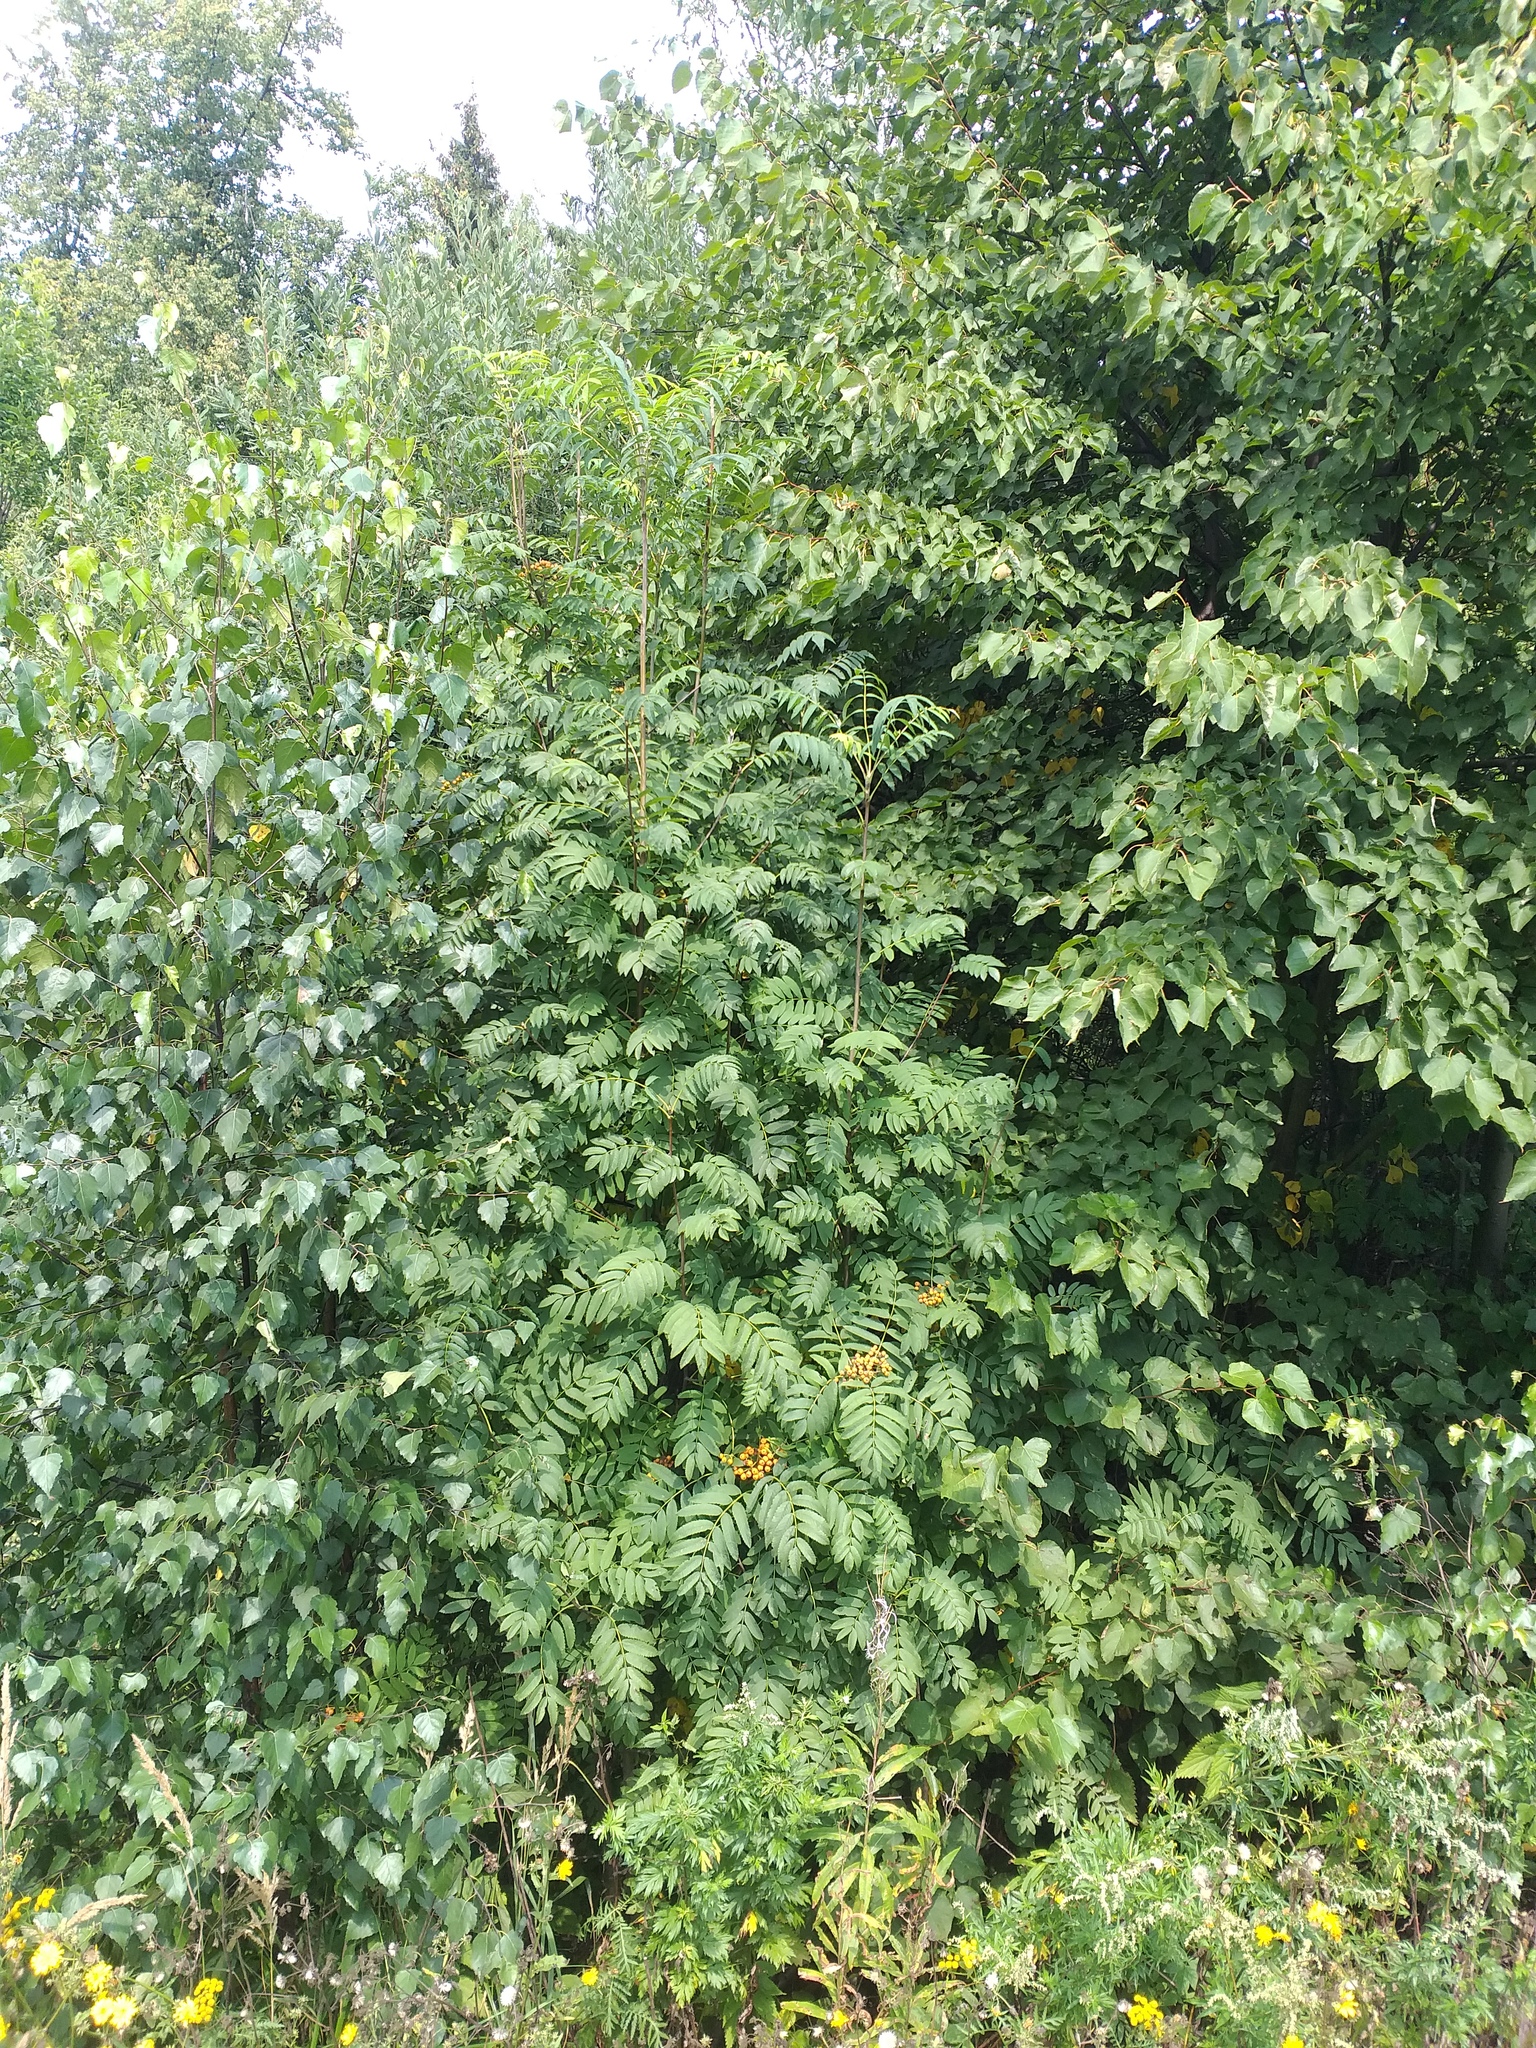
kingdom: Plantae
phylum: Tracheophyta
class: Magnoliopsida
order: Rosales
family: Rosaceae
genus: Sorbus
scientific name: Sorbus aucuparia
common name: Rowan
